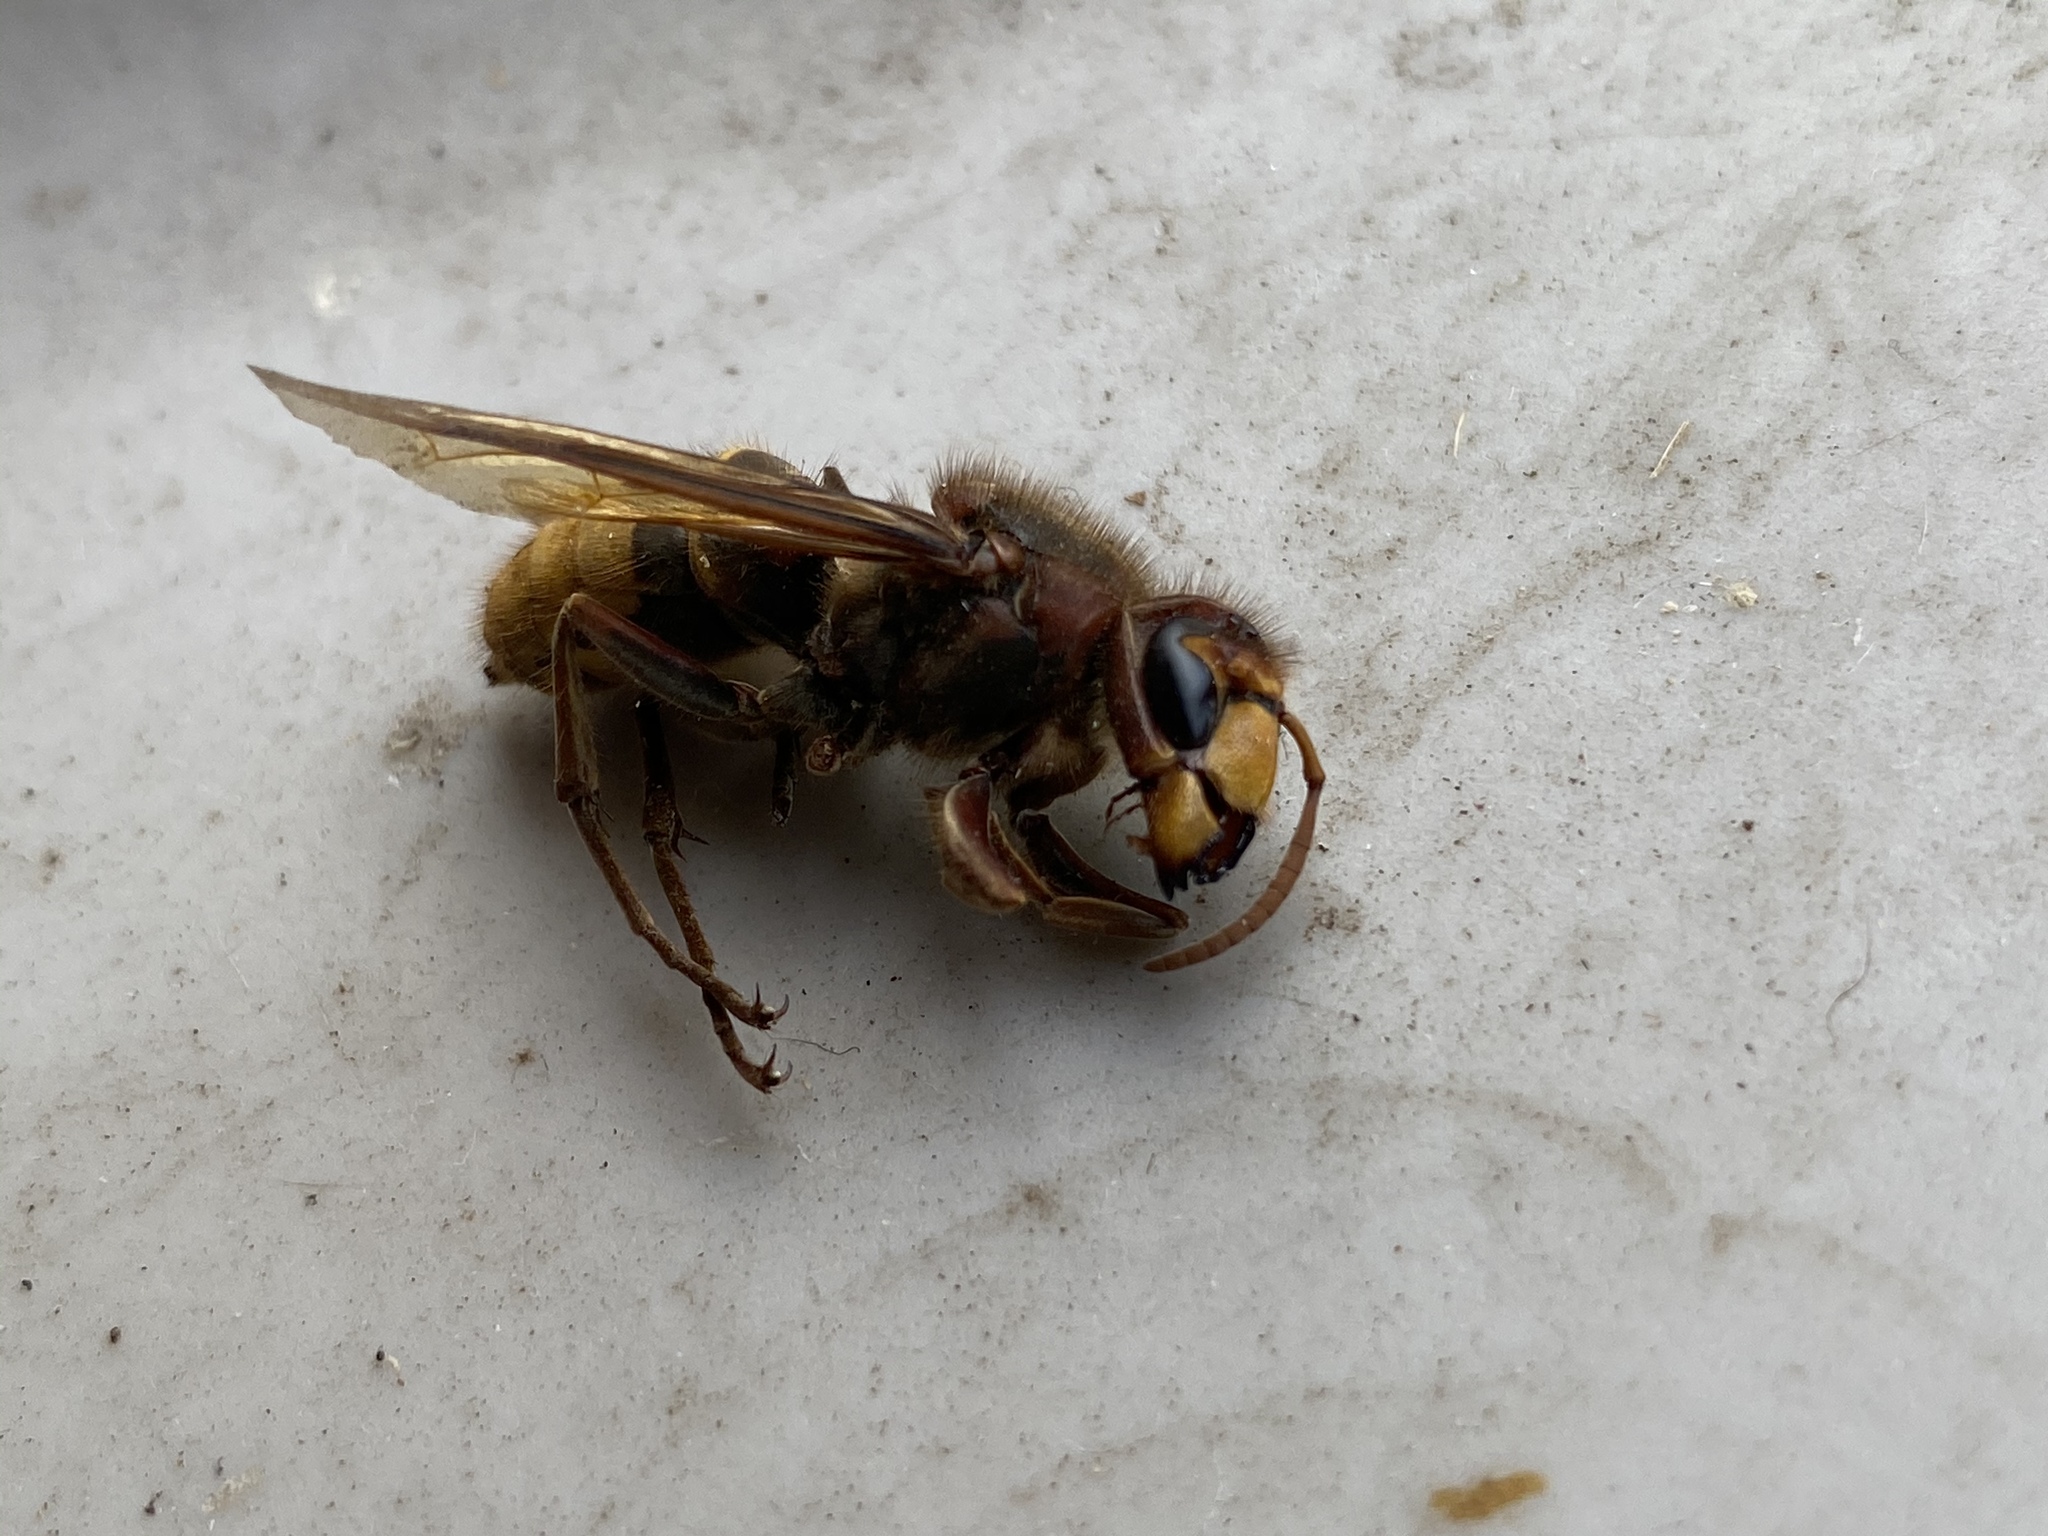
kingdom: Animalia
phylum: Arthropoda
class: Insecta
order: Hymenoptera
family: Vespidae
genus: Vespa
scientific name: Vespa crabro
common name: Hornet
